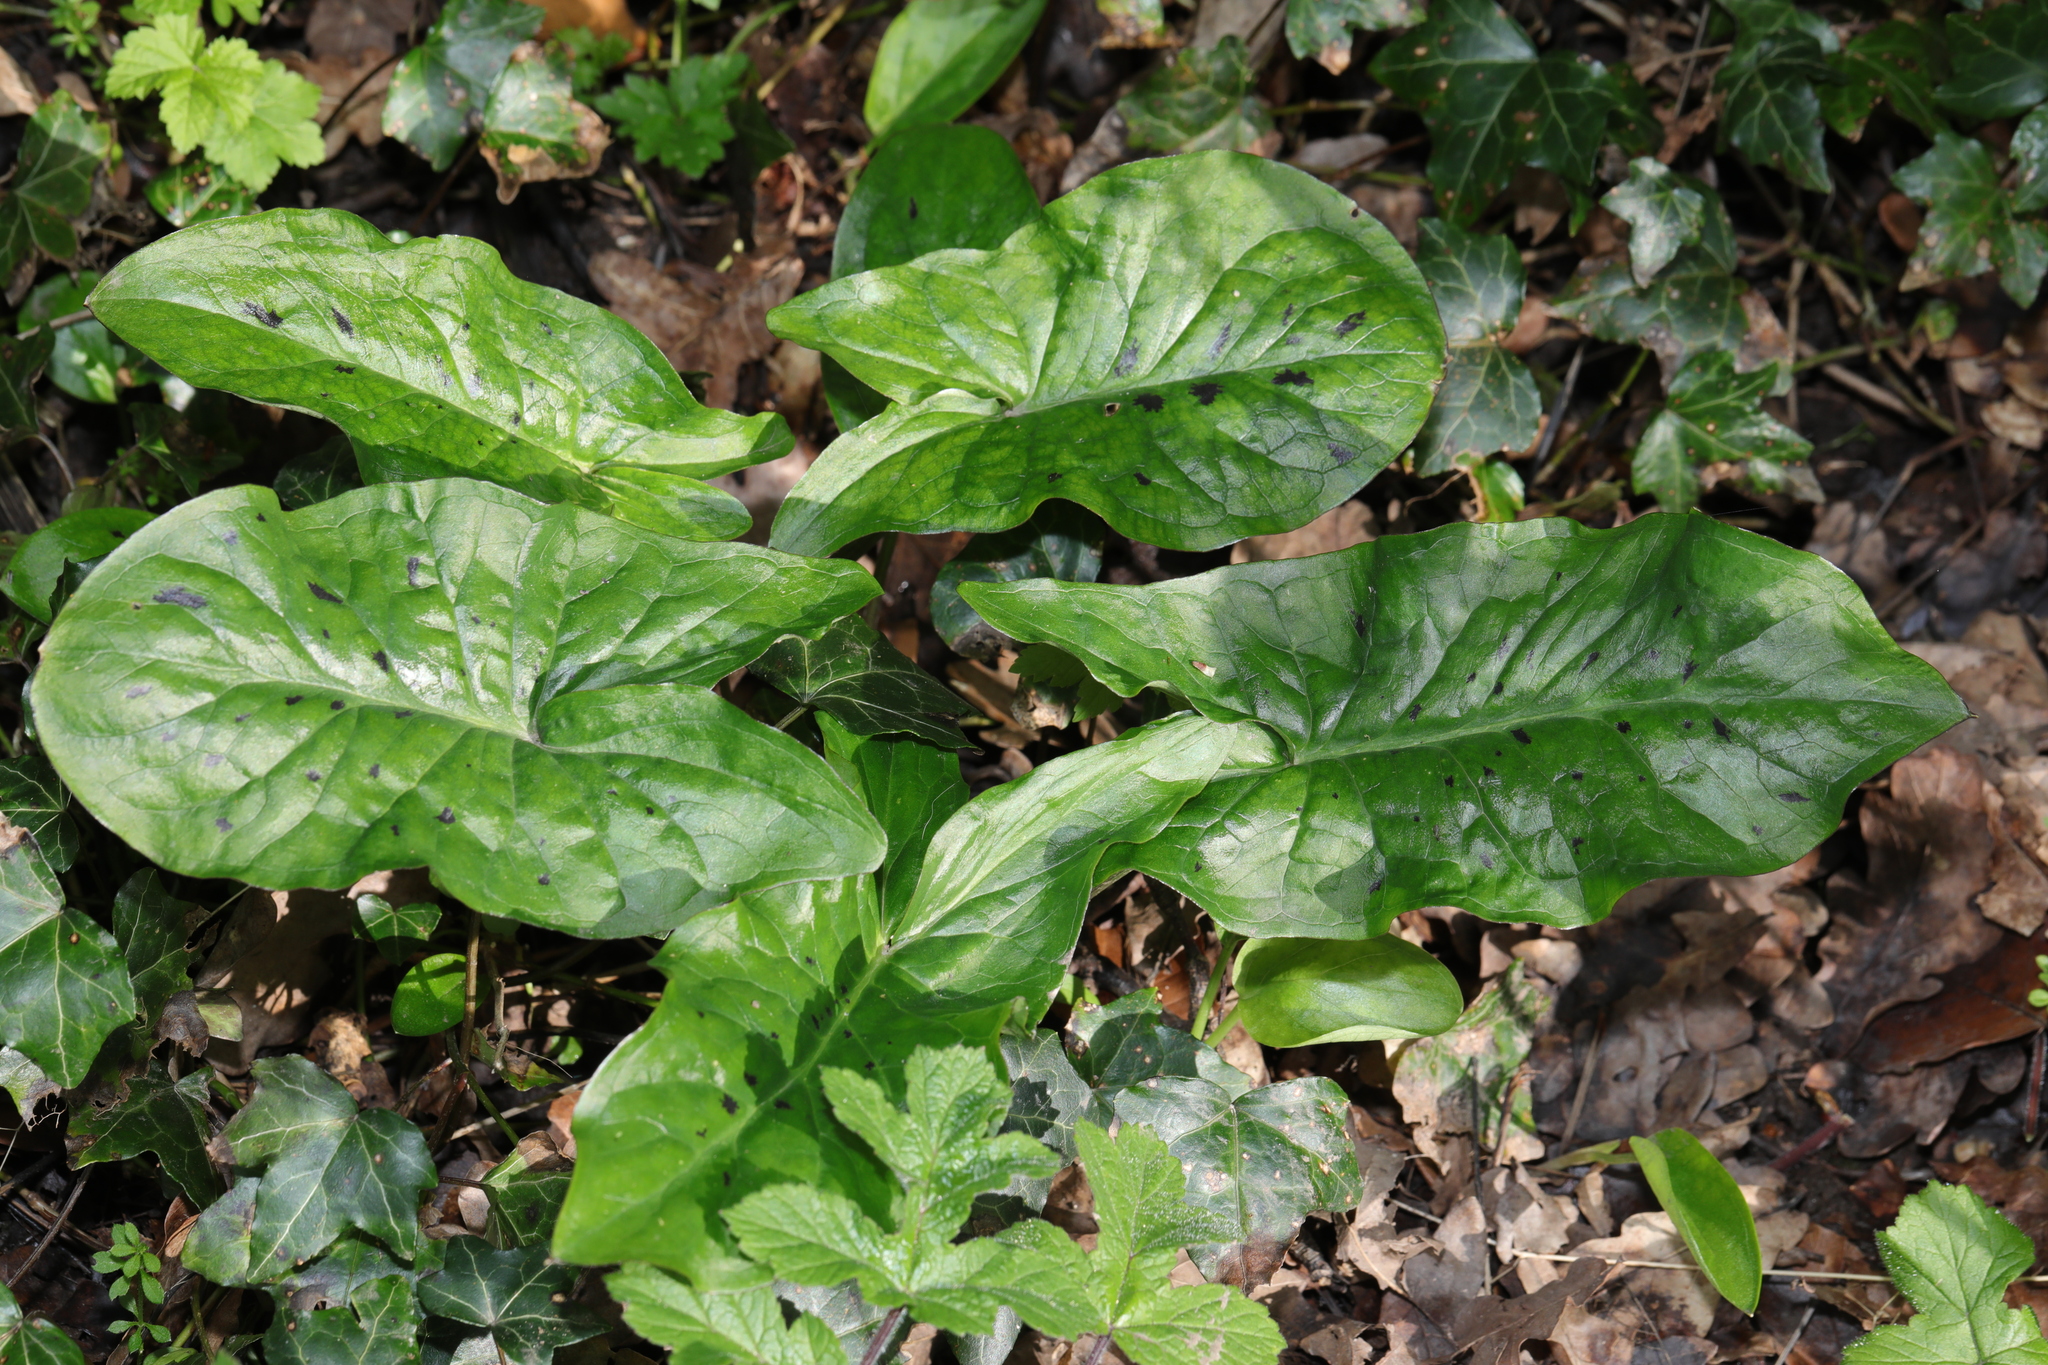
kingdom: Plantae
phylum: Tracheophyta
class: Liliopsida
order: Alismatales
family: Araceae
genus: Arum
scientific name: Arum maculatum
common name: Lords-and-ladies
